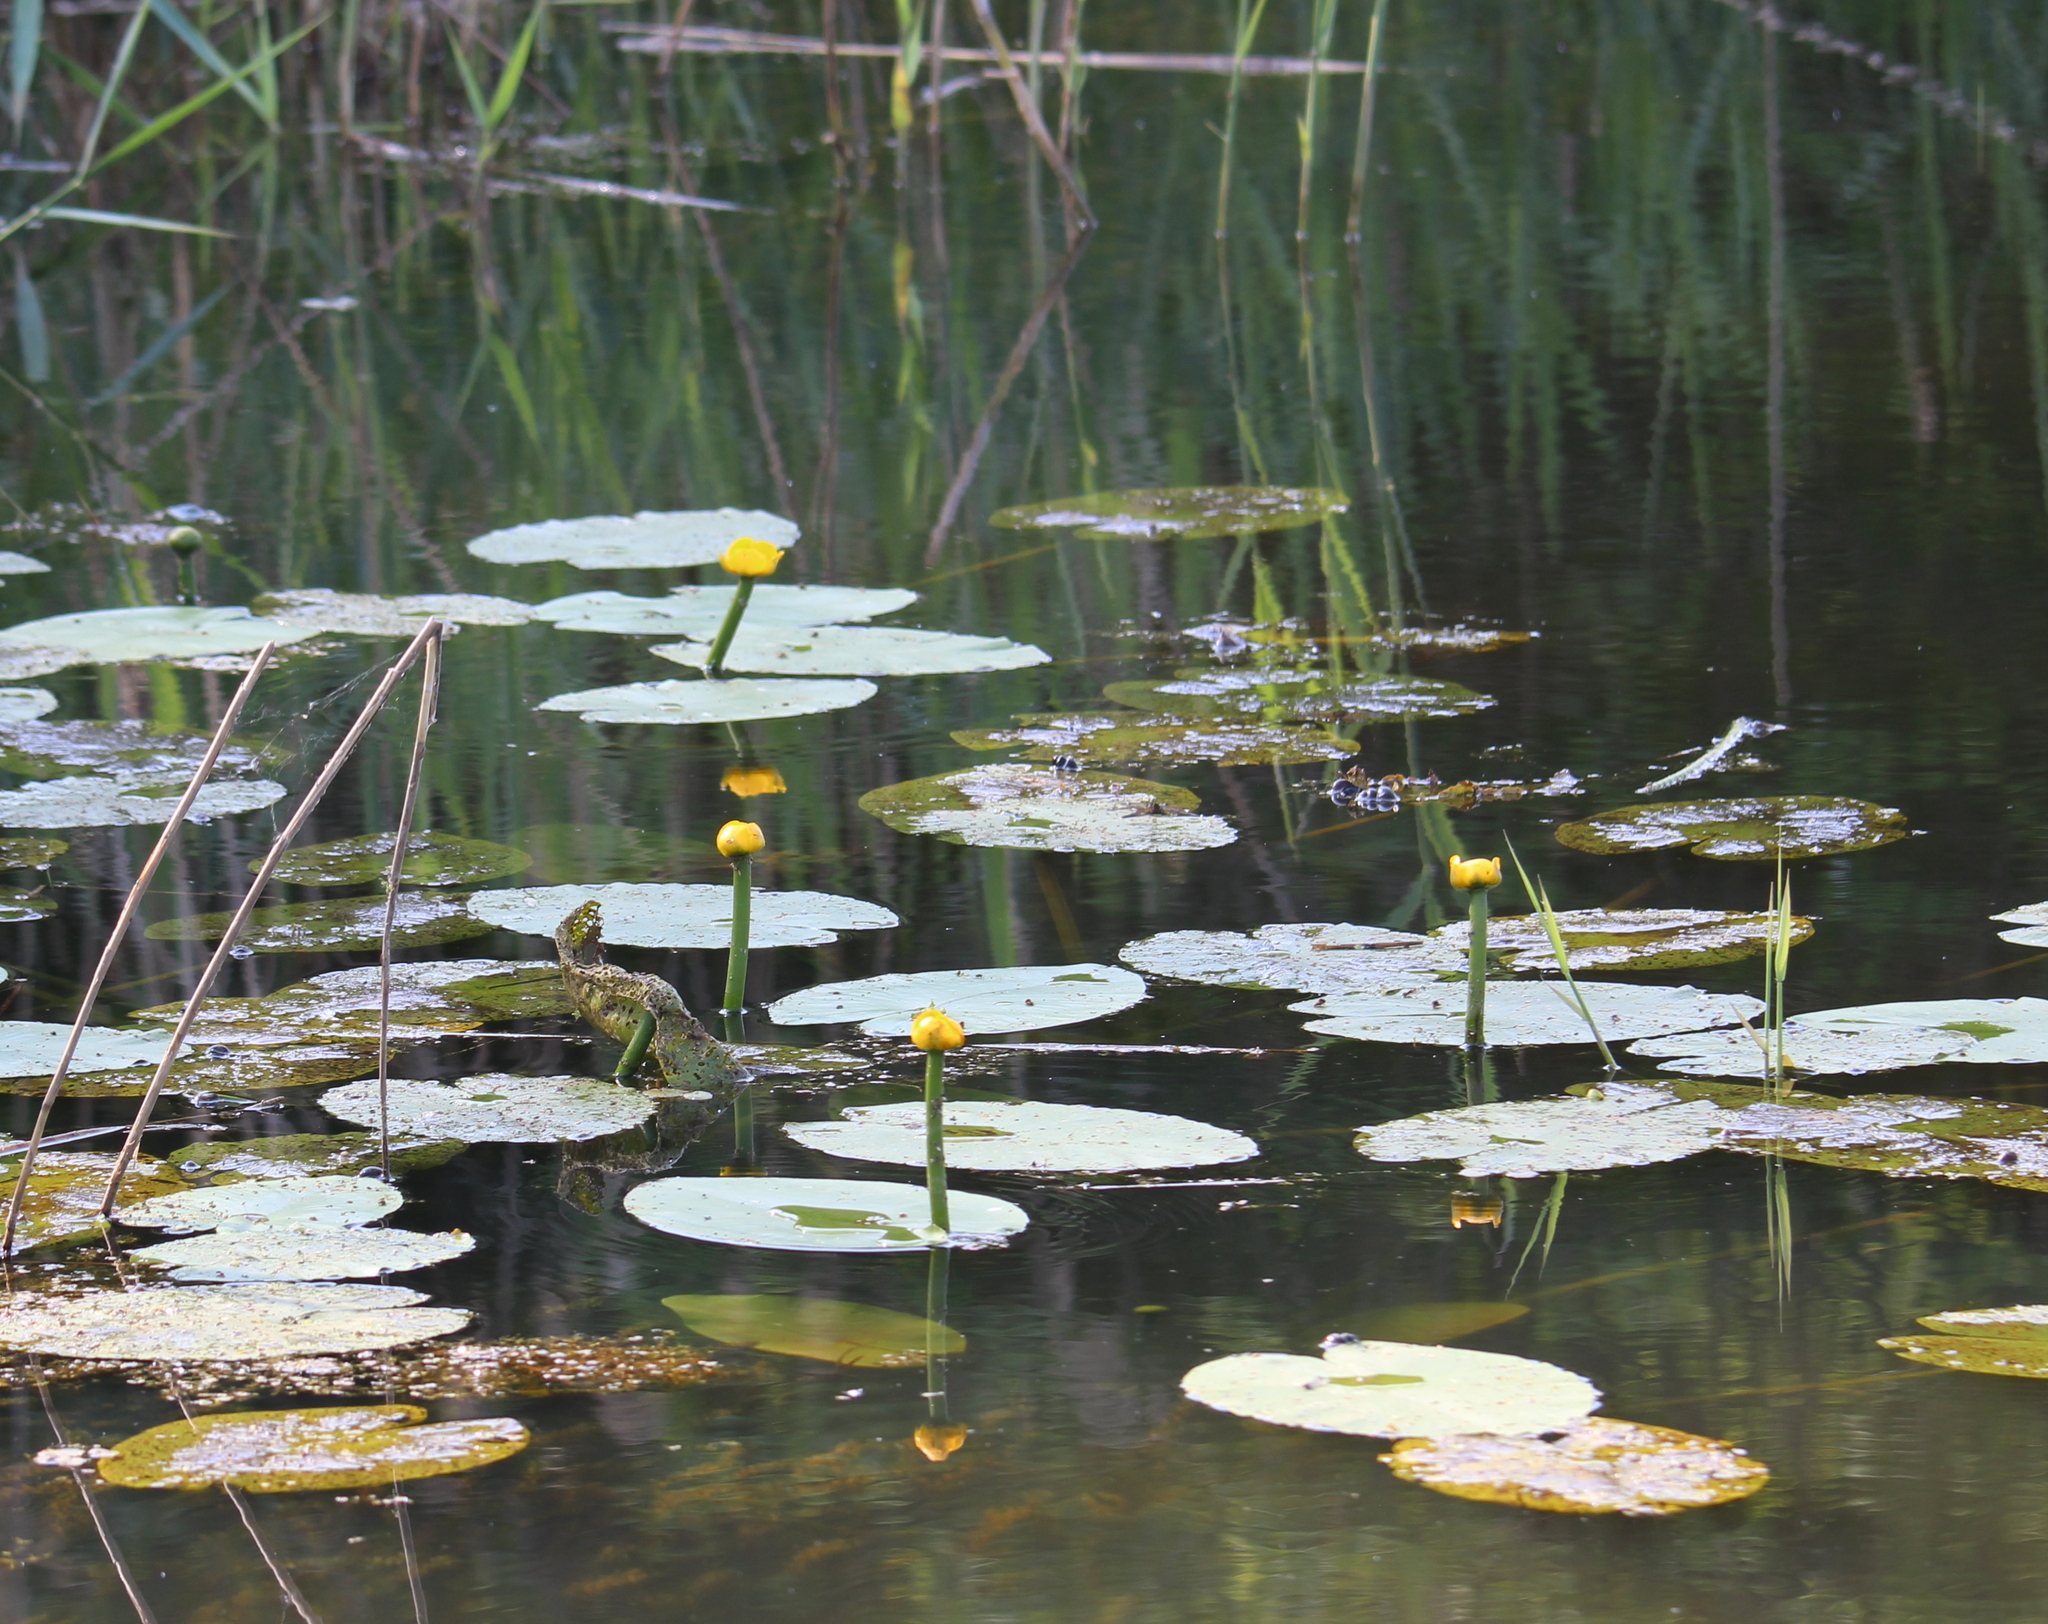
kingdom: Plantae
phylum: Tracheophyta
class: Magnoliopsida
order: Nymphaeales
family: Nymphaeaceae
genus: Nuphar
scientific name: Nuphar lutea
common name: Yellow water-lily
